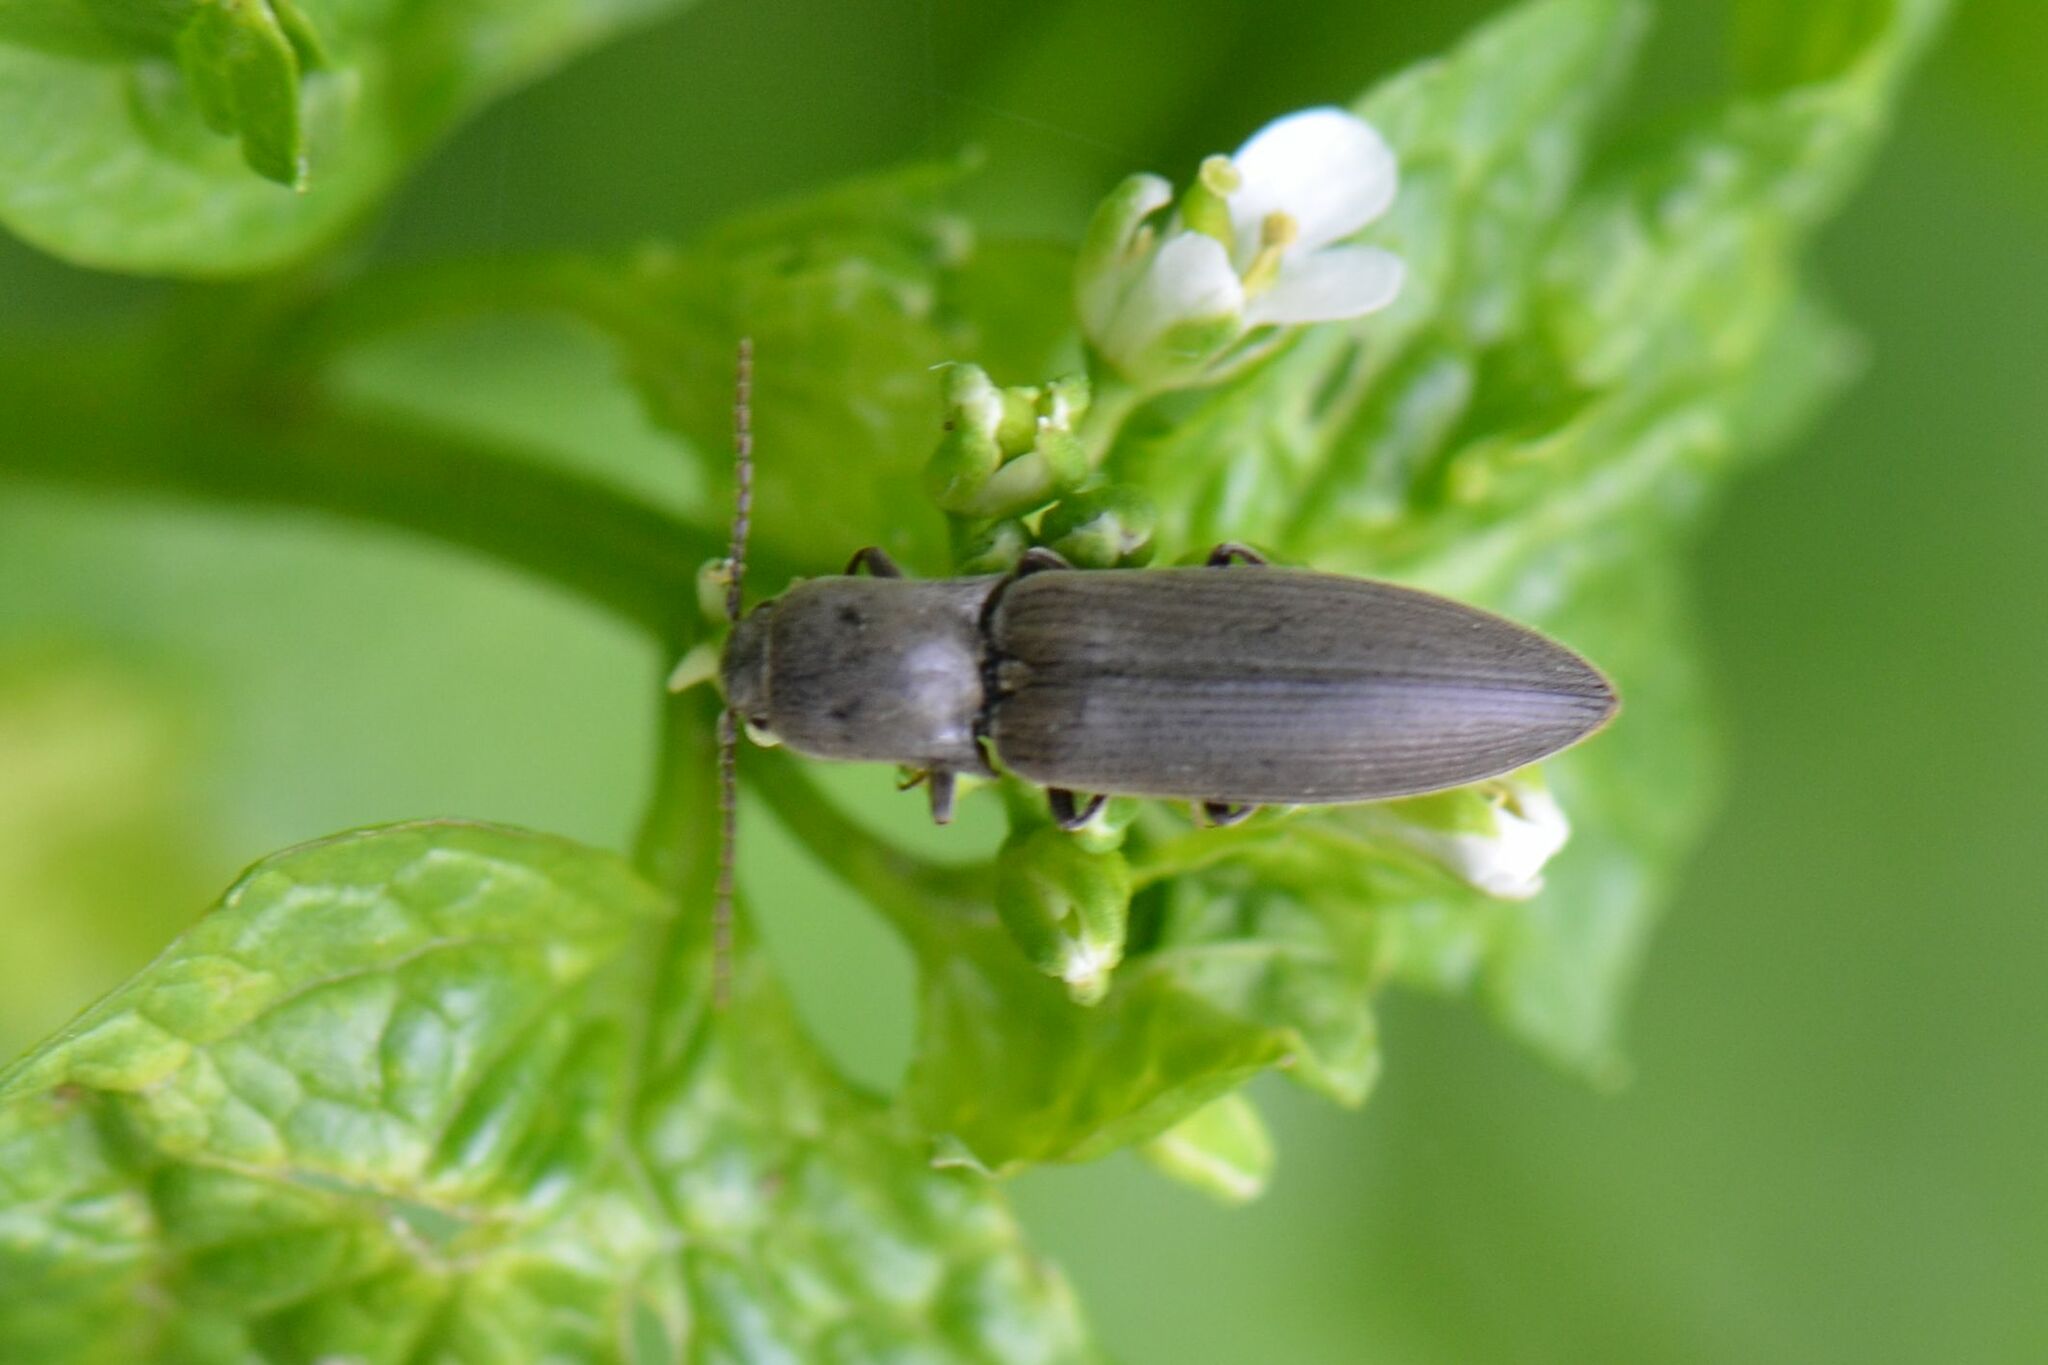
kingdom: Animalia
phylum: Arthropoda
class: Insecta
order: Coleoptera
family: Elateridae
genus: Agriotes
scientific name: Agriotes pilosellus
